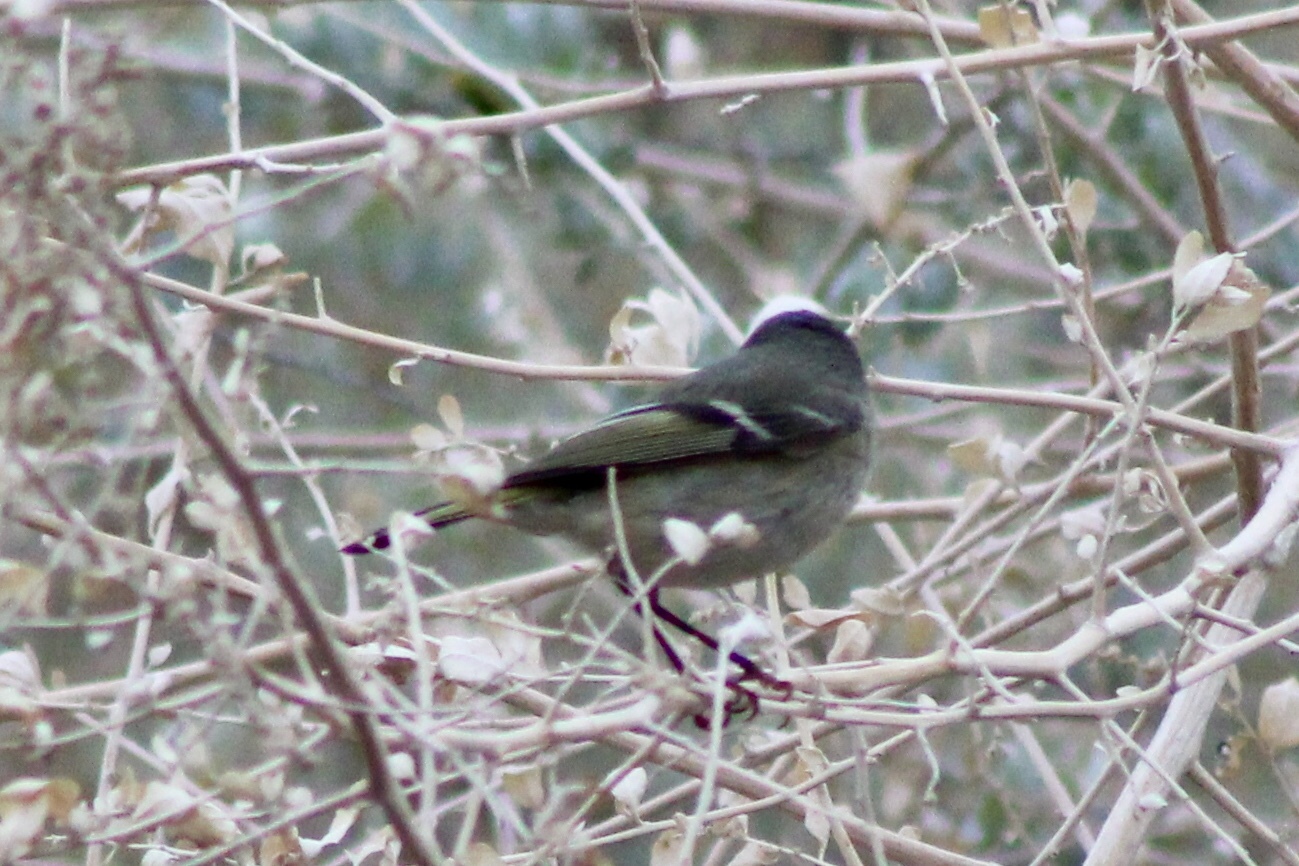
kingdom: Animalia
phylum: Chordata
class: Aves
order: Passeriformes
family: Regulidae
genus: Regulus
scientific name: Regulus calendula
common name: Ruby-crowned kinglet
